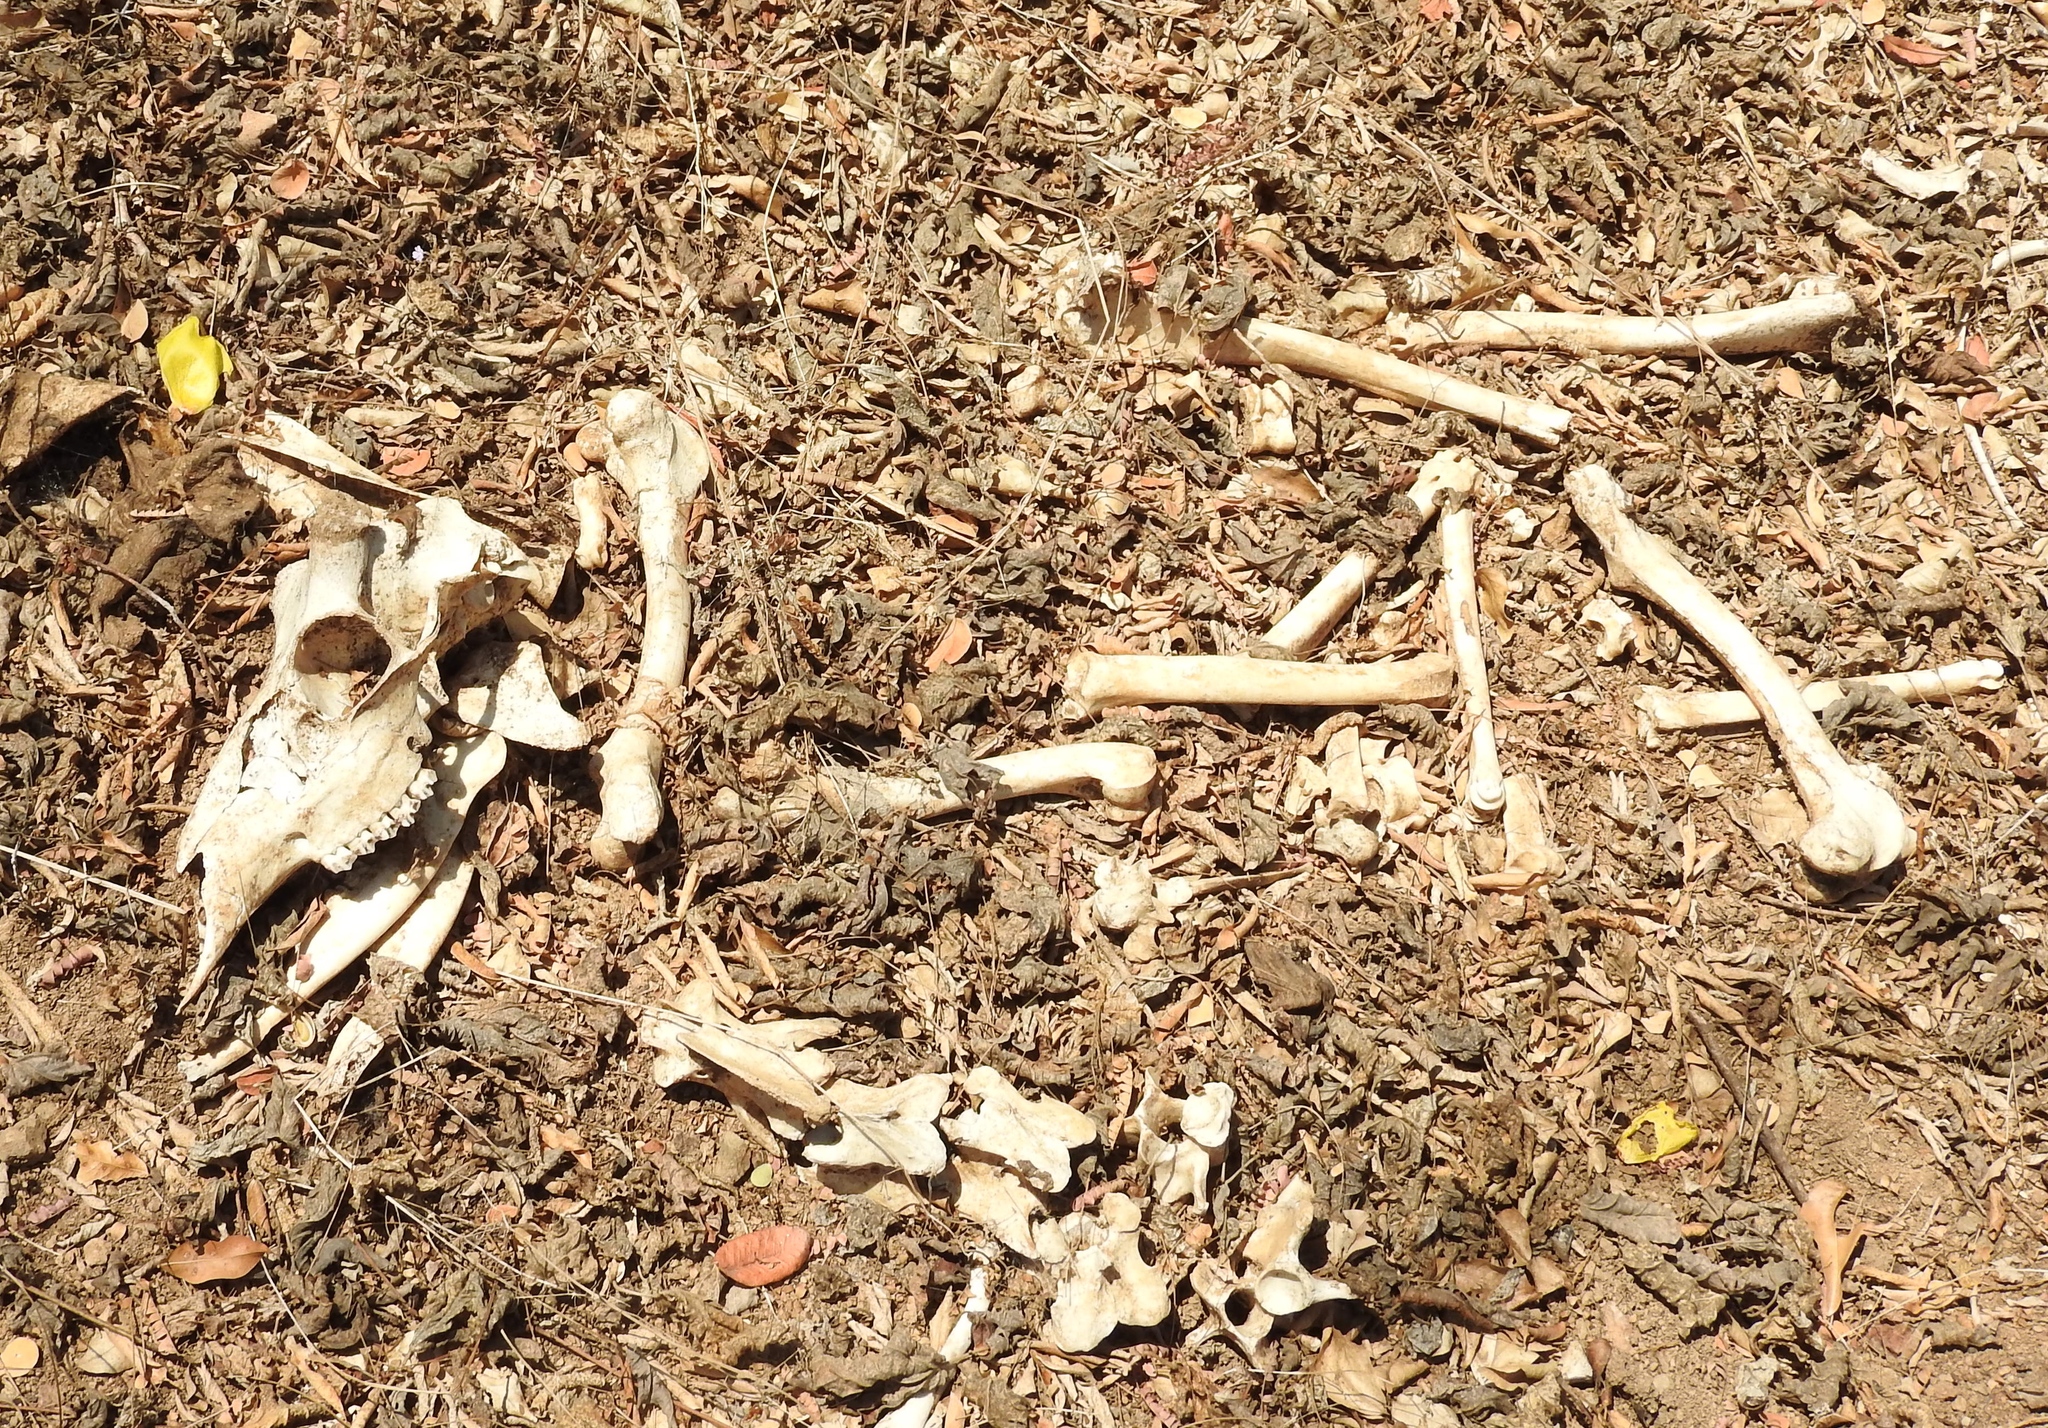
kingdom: Animalia
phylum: Chordata
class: Mammalia
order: Artiodactyla
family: Cervidae
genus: Odocoileus
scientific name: Odocoileus virginianus
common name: White-tailed deer
